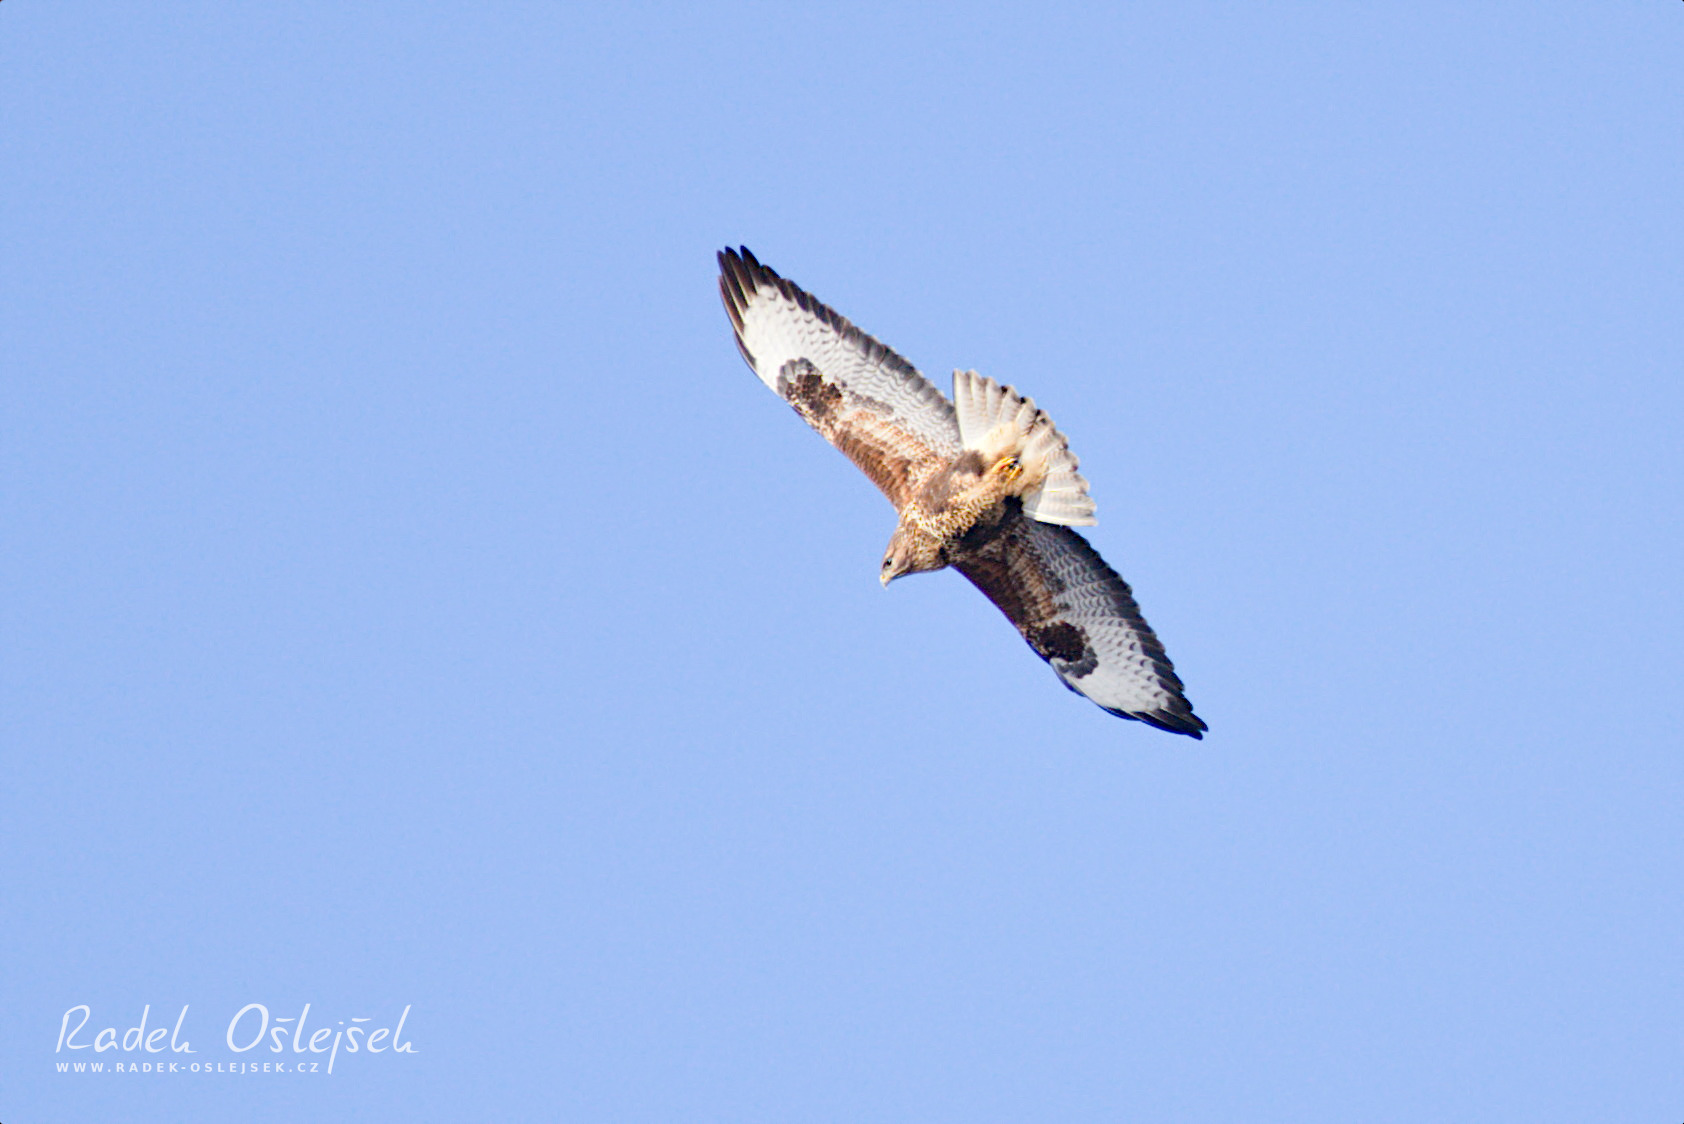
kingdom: Animalia
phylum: Chordata
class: Aves
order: Accipitriformes
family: Accipitridae
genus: Buteo
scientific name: Buteo buteo
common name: Common buzzard
